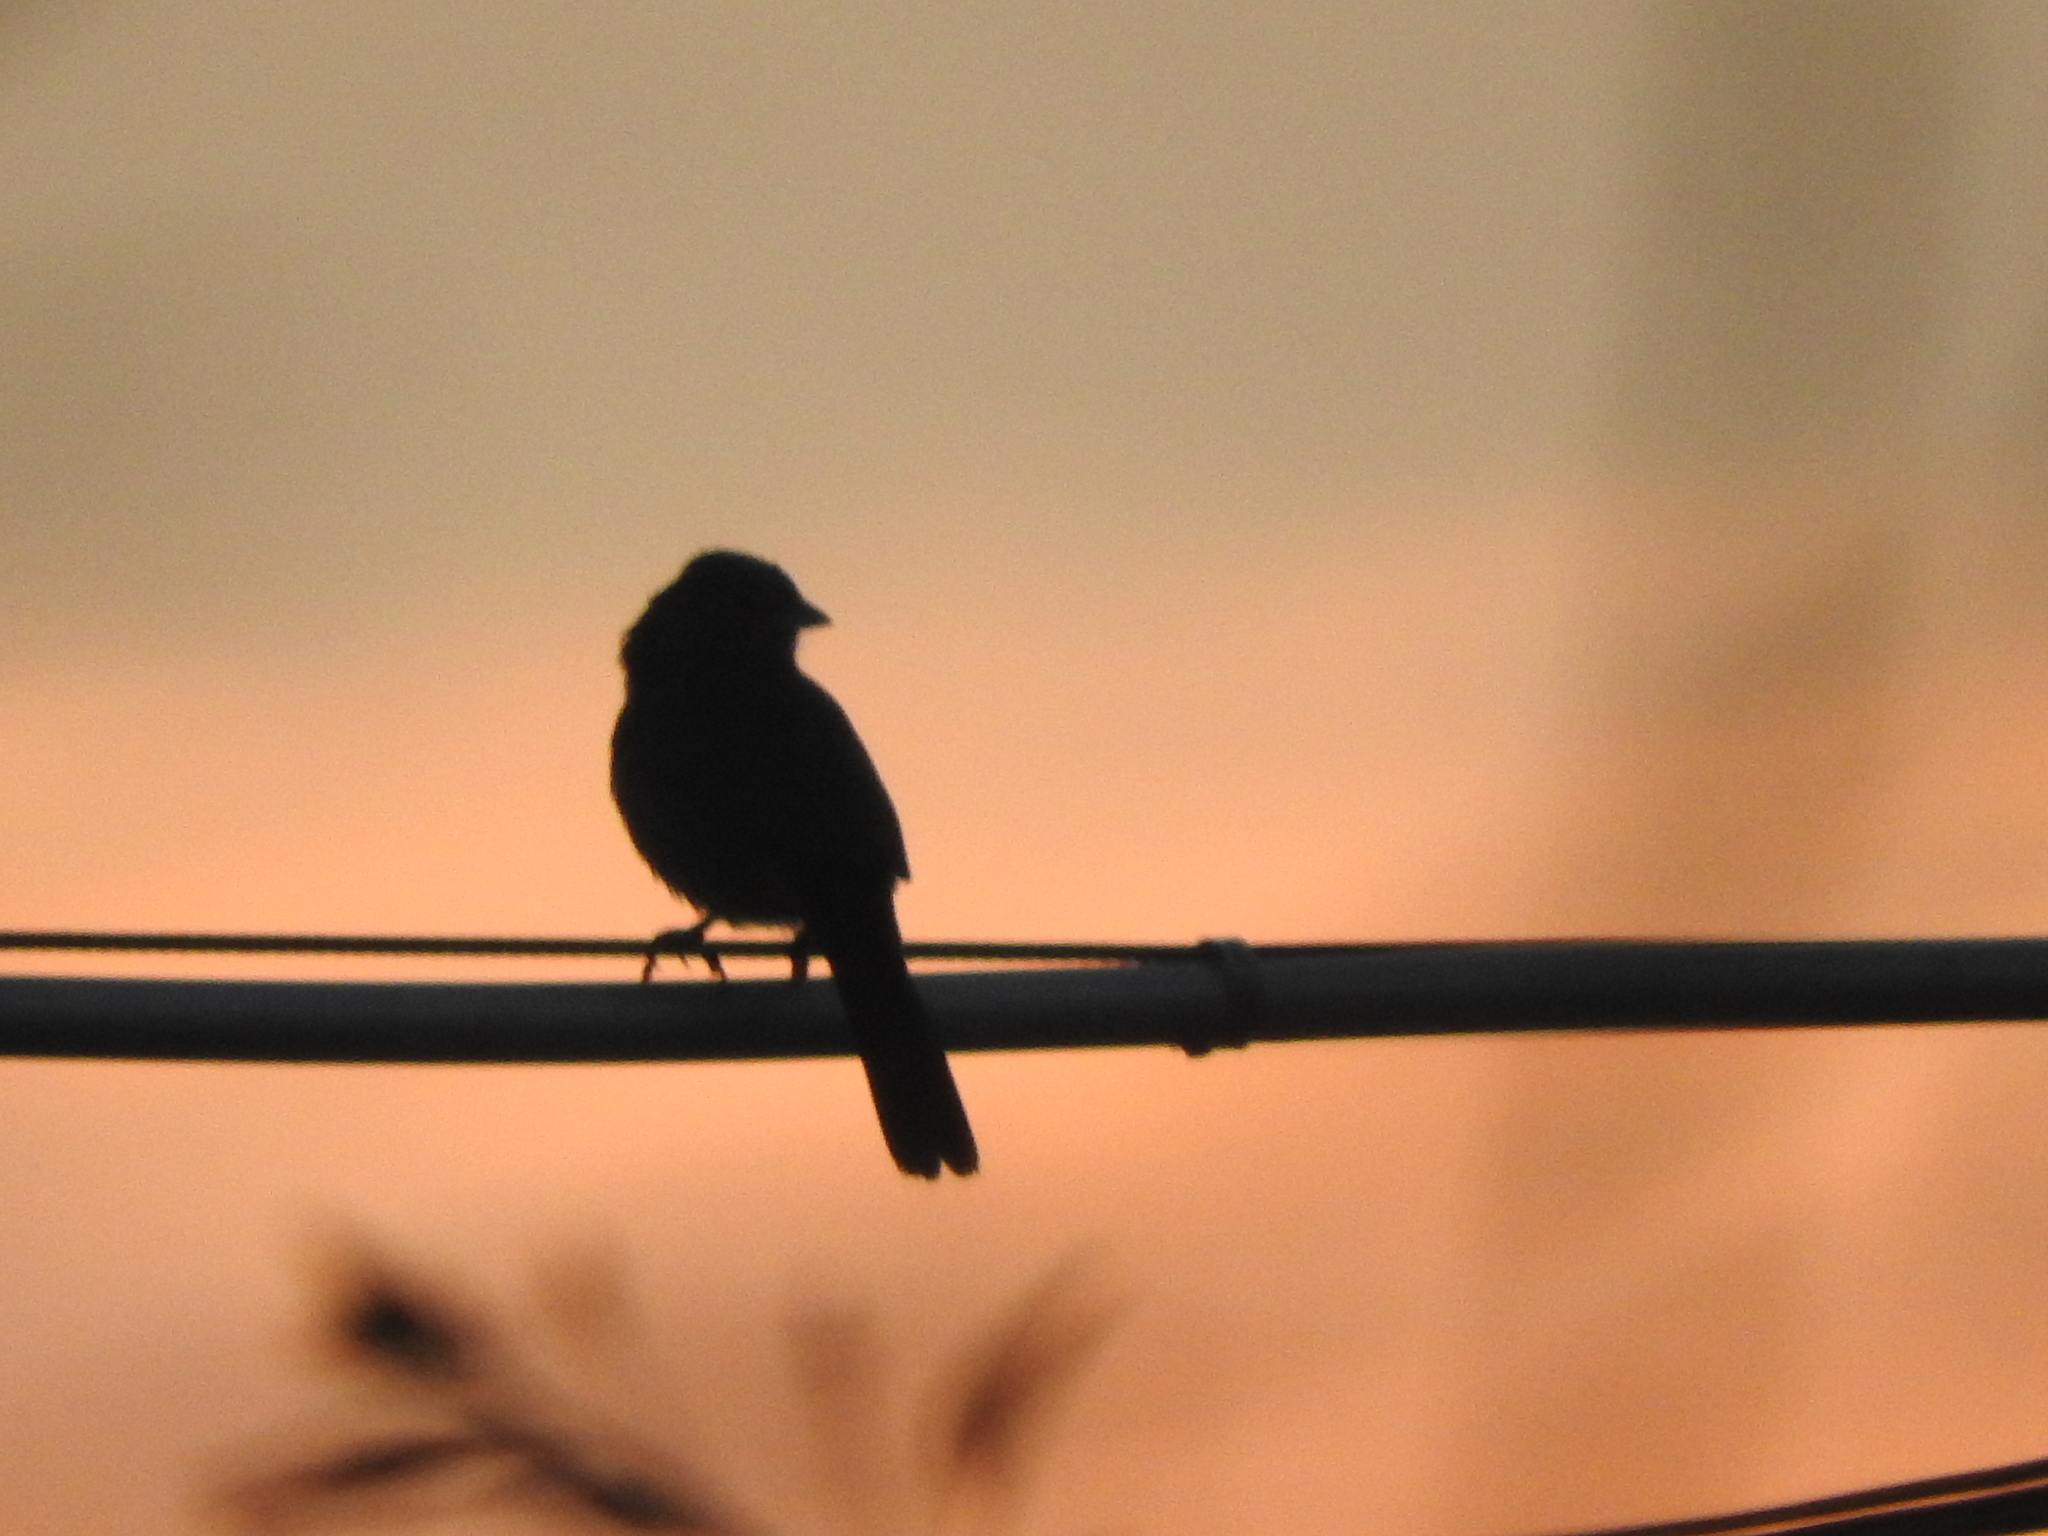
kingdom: Animalia
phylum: Chordata
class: Aves
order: Passeriformes
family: Passerellidae
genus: Melozone
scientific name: Melozone fusca
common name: Canyon towhee
